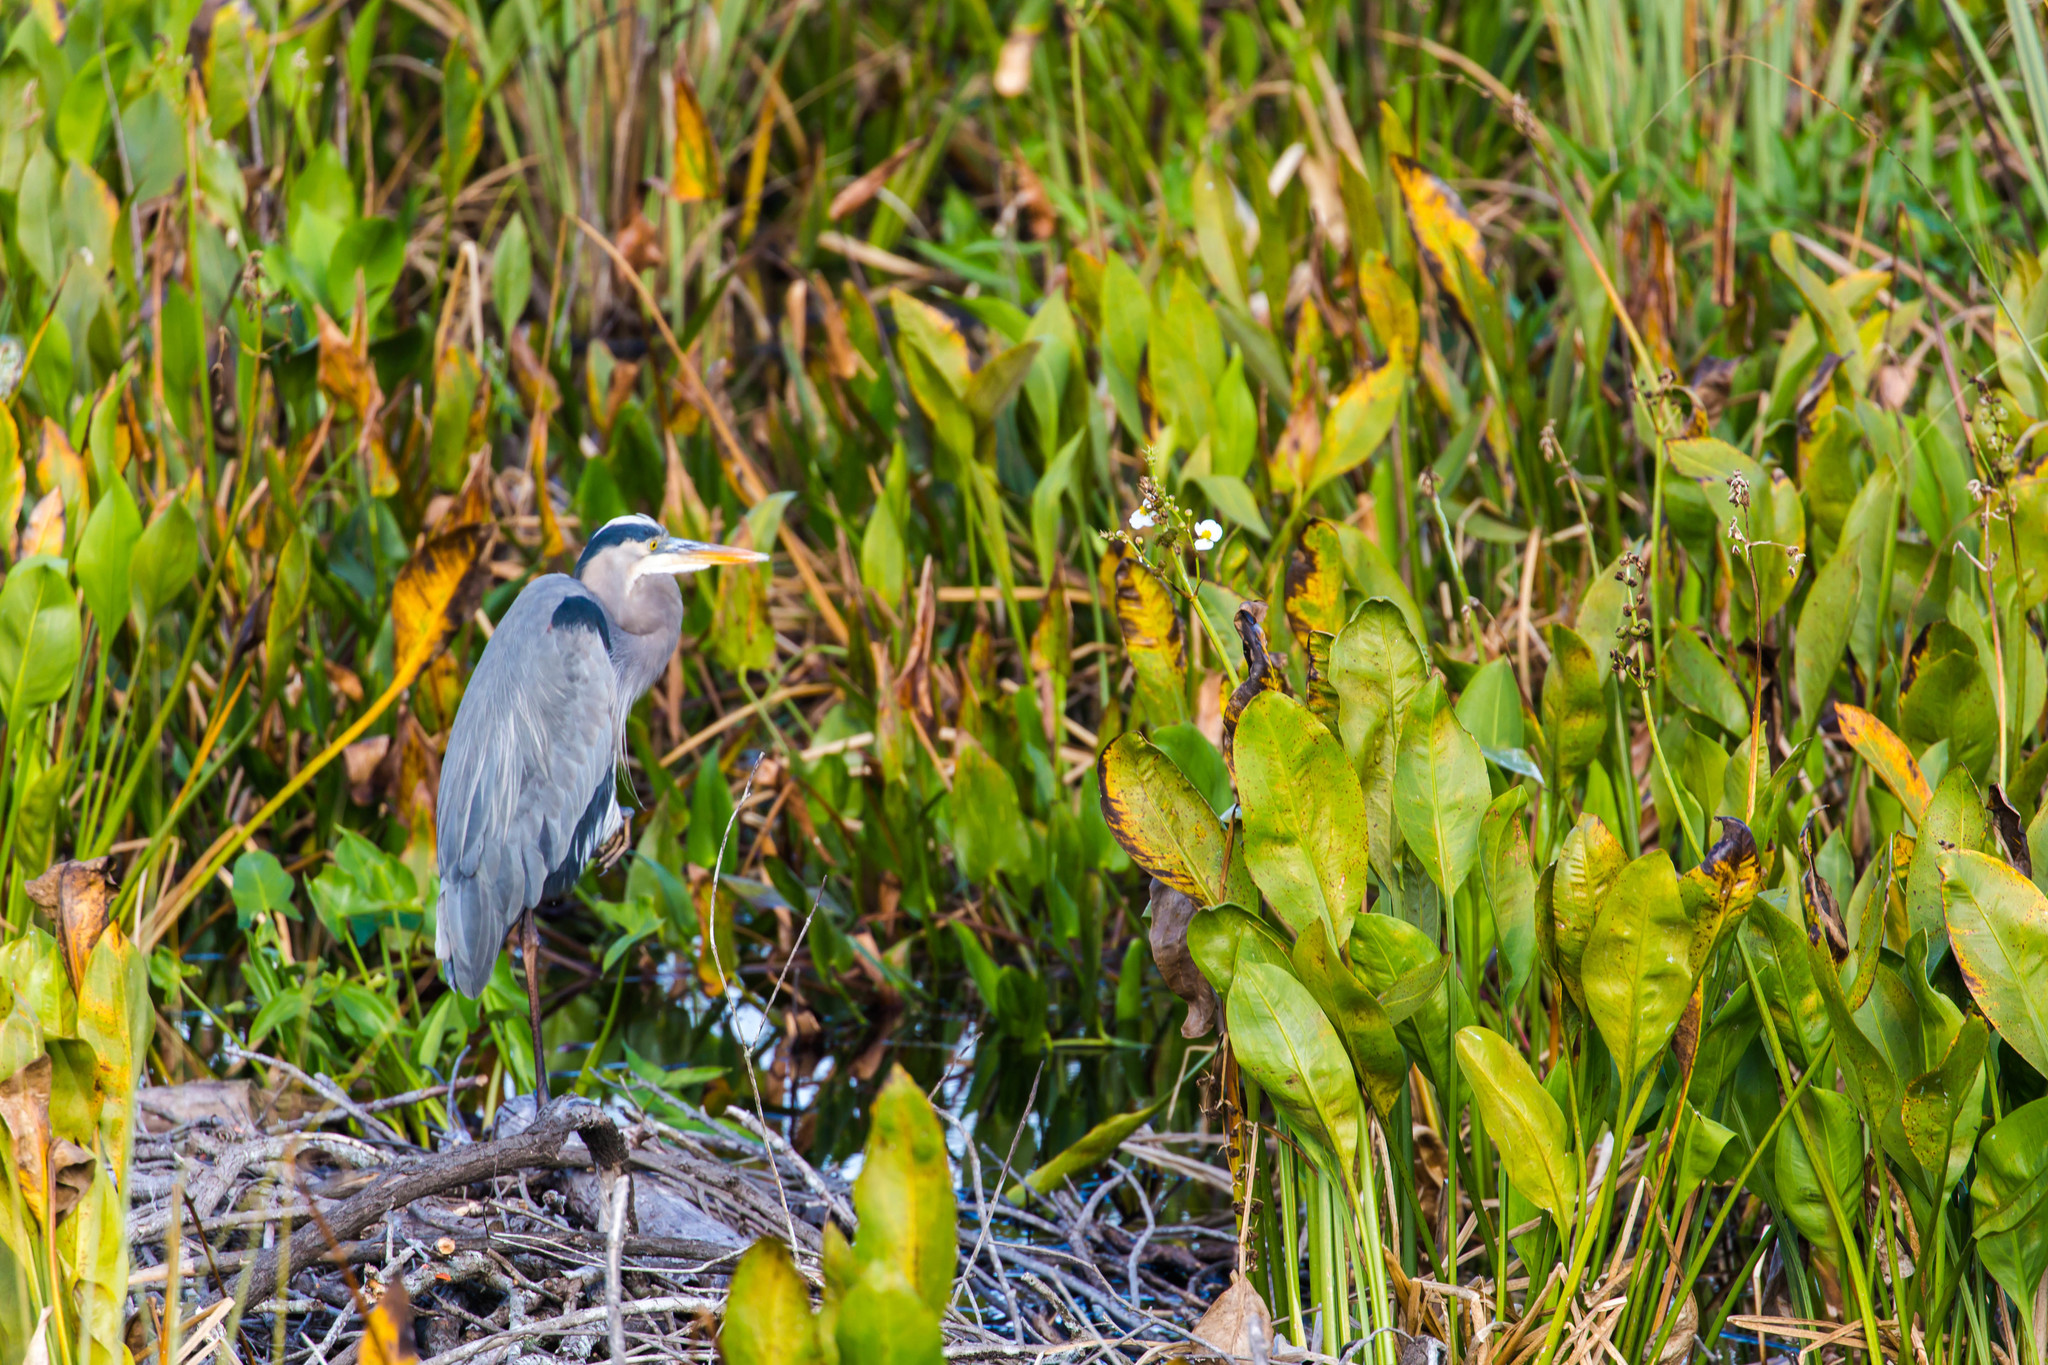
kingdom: Animalia
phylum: Chordata
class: Aves
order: Pelecaniformes
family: Ardeidae
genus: Ardea
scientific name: Ardea herodias
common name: Great blue heron
